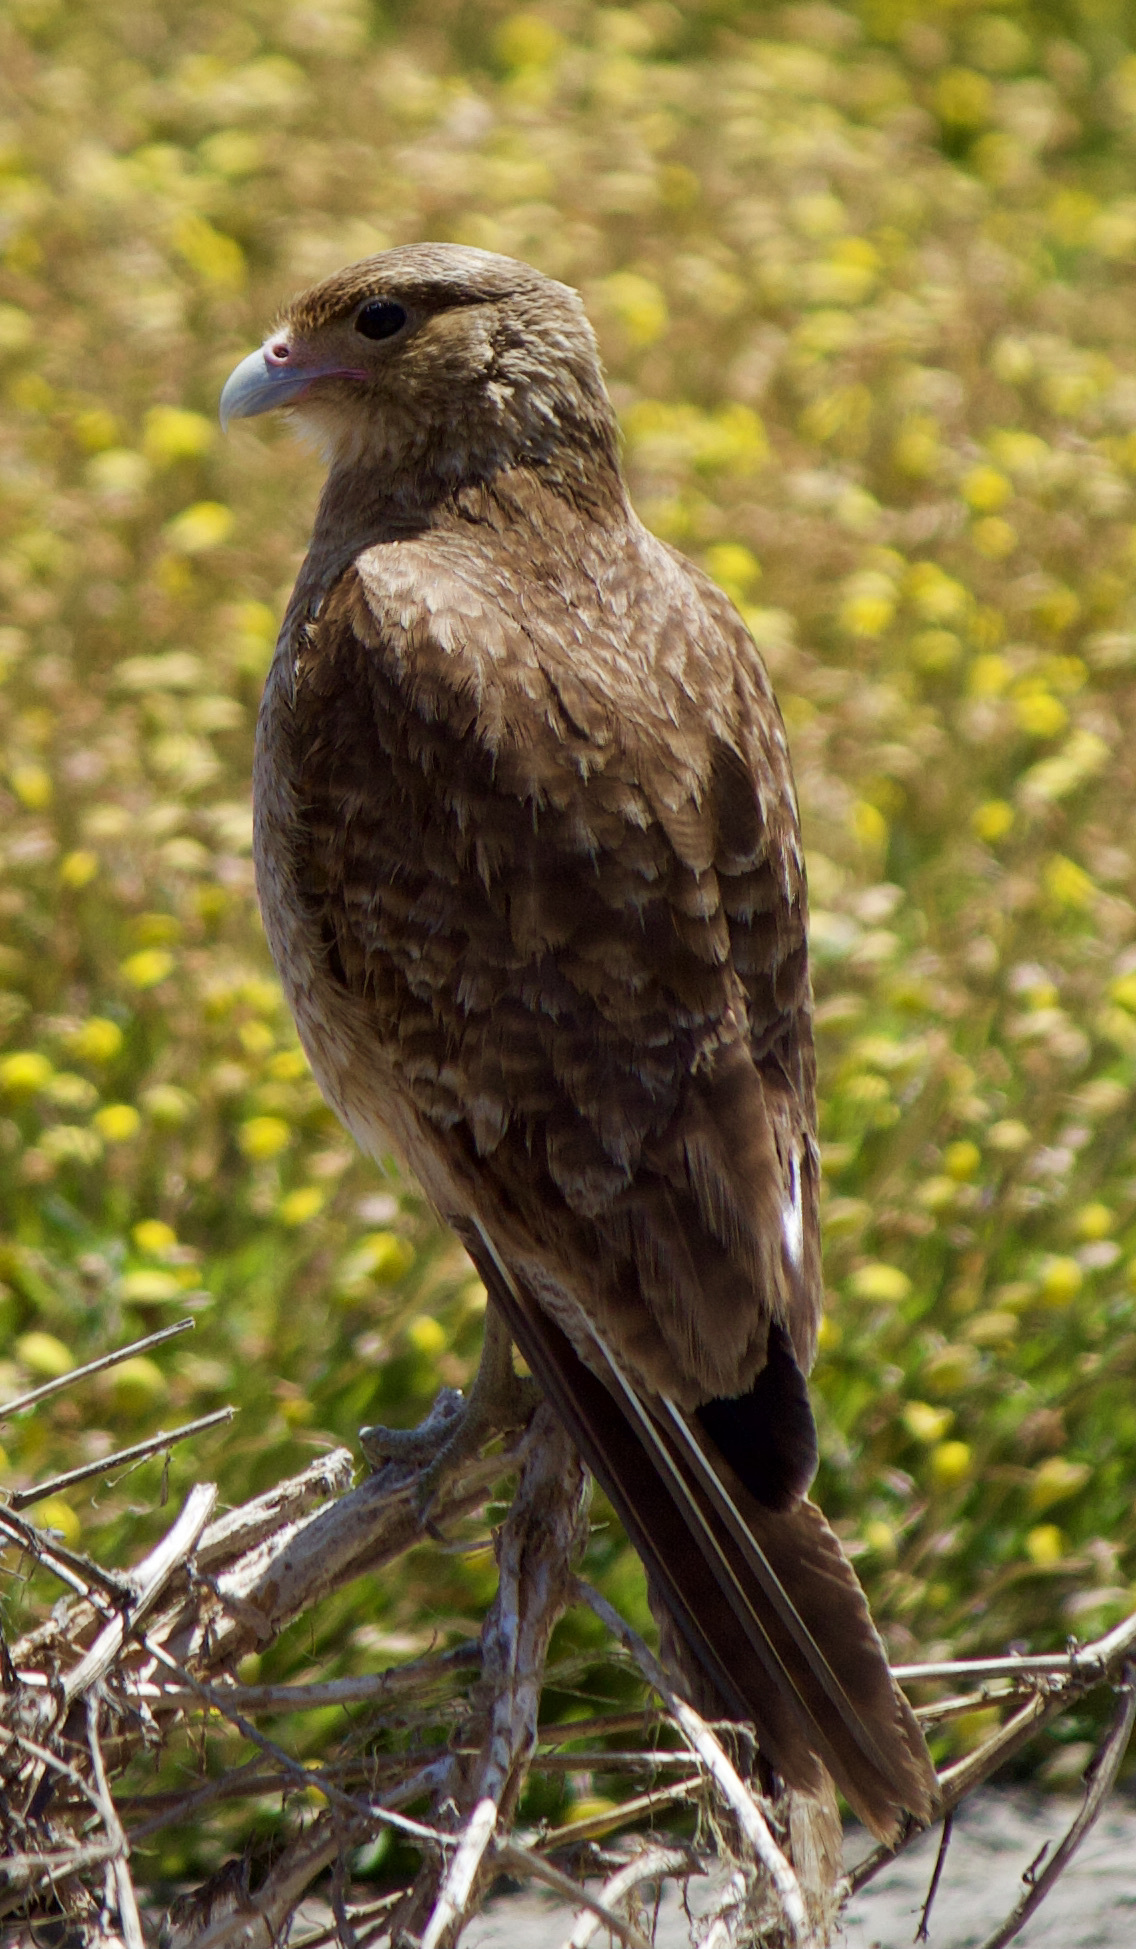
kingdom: Animalia
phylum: Chordata
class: Aves
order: Falconiformes
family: Falconidae
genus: Daptrius
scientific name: Daptrius
